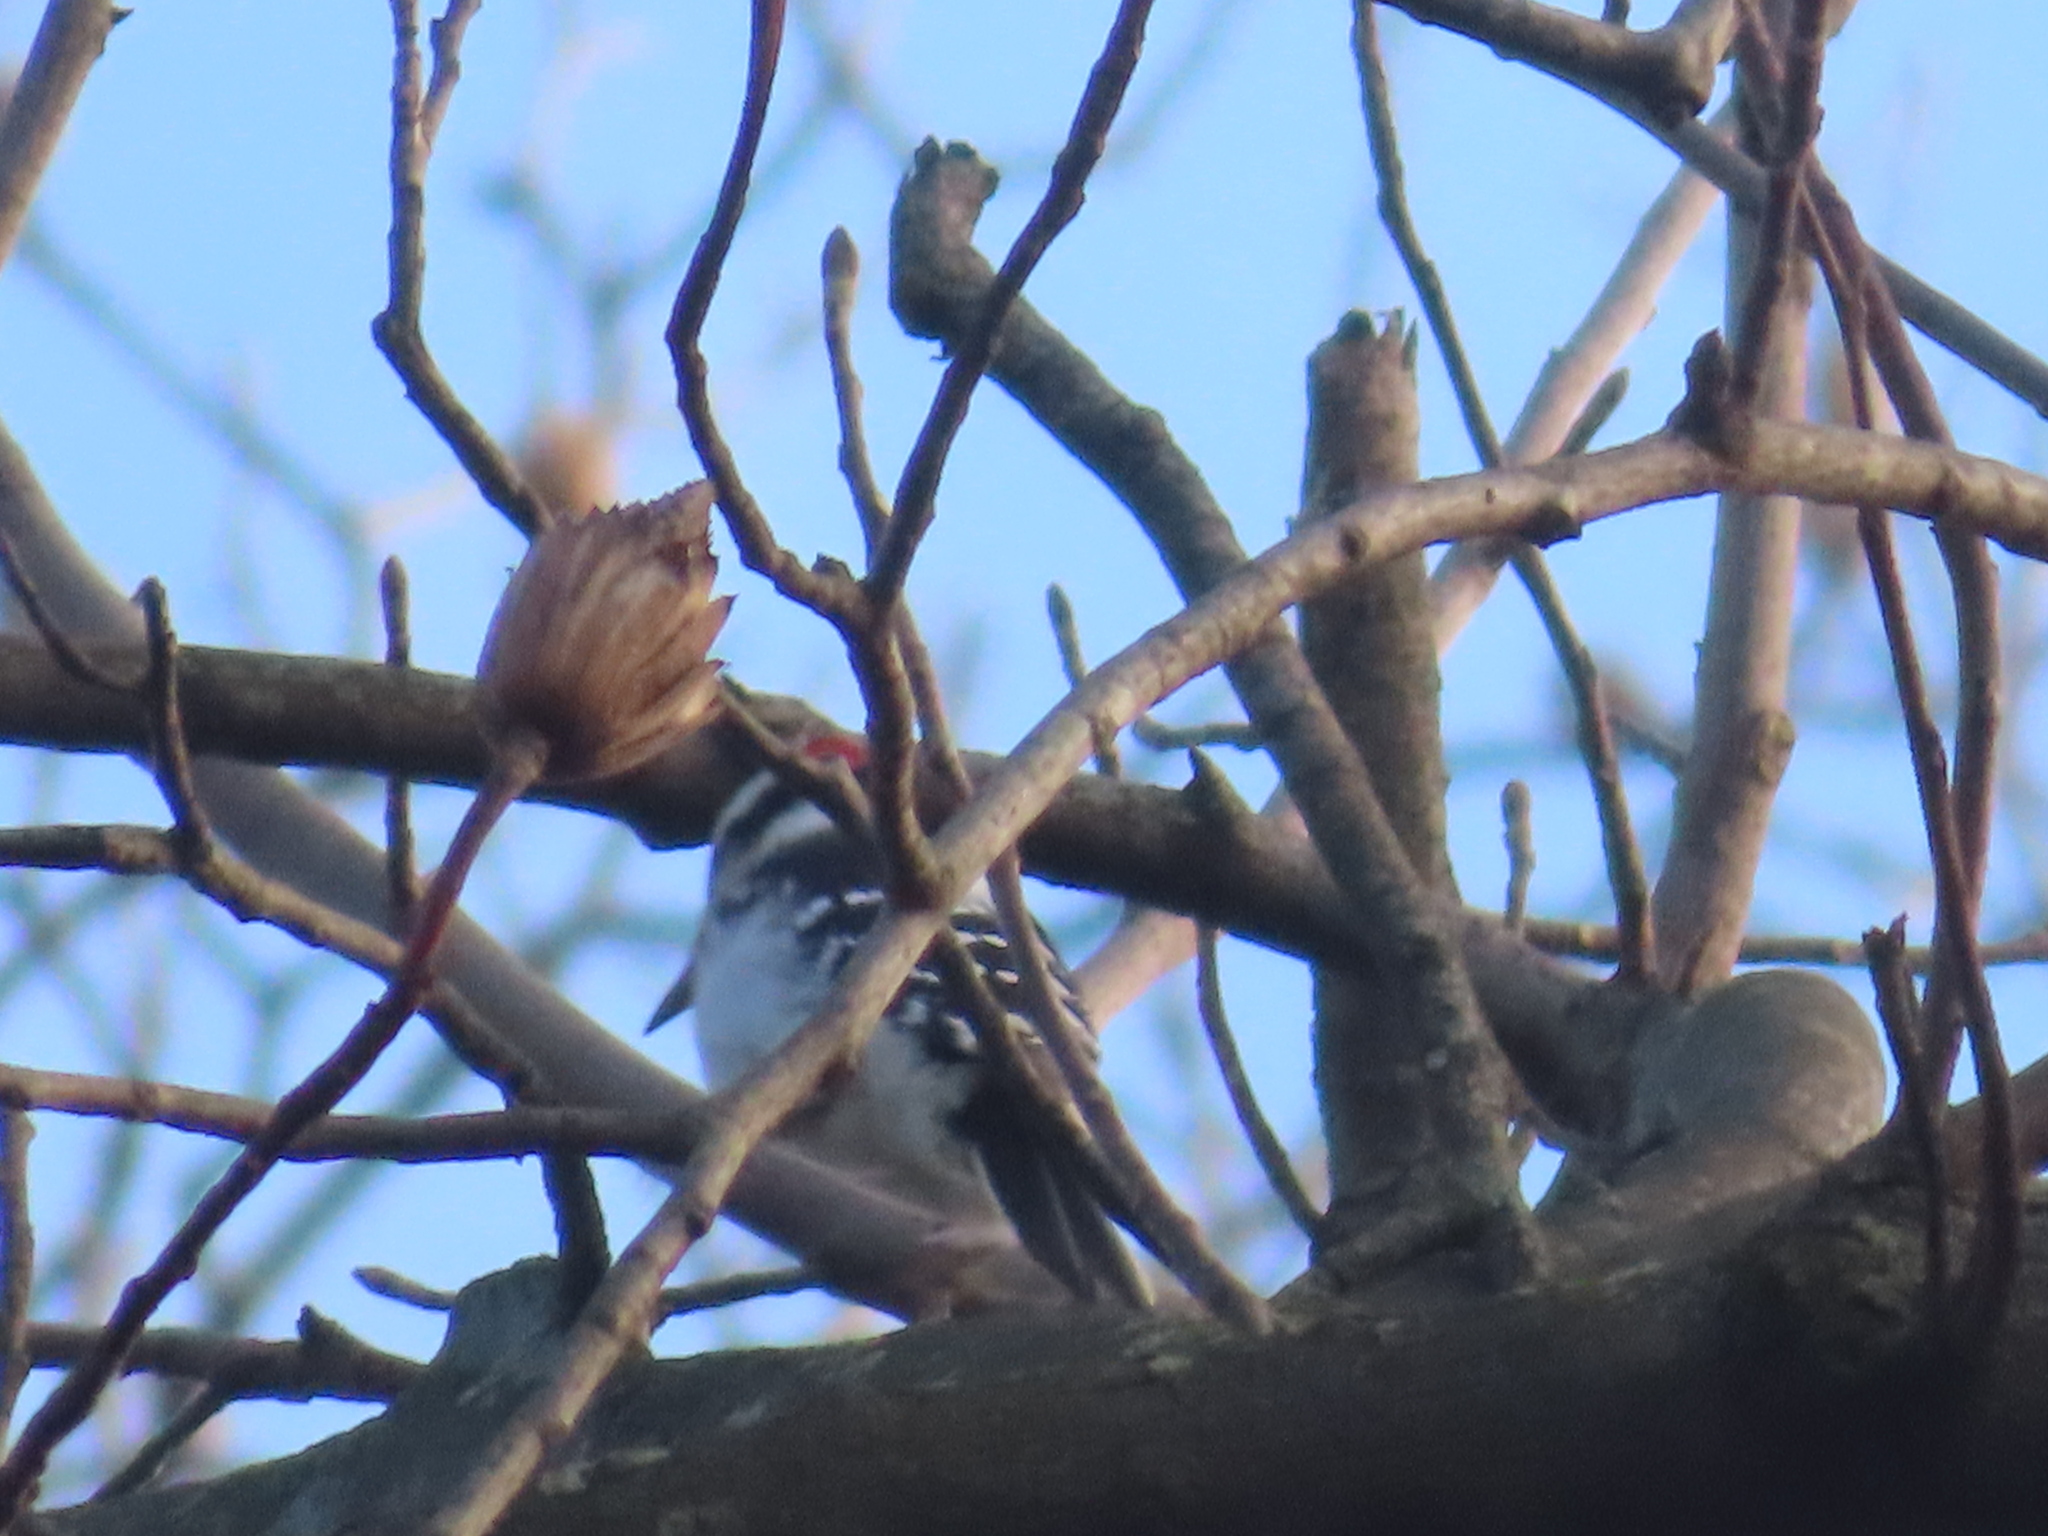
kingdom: Animalia
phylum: Chordata
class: Aves
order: Piciformes
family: Picidae
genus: Dryobates
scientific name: Dryobates pubescens
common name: Downy woodpecker
